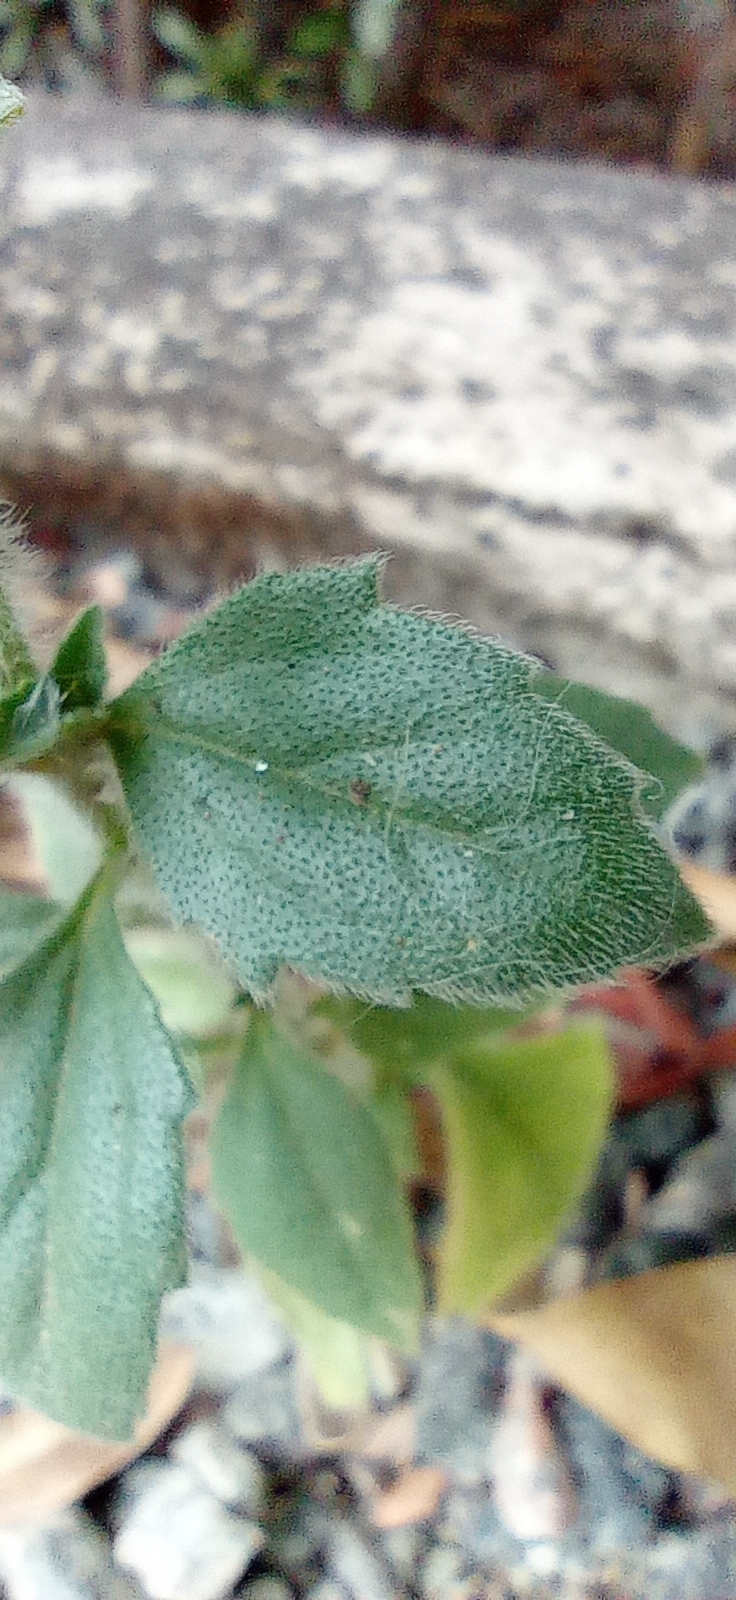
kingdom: Plantae
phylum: Tracheophyta
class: Magnoliopsida
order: Asterales
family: Asteraceae
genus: Tridax
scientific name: Tridax procumbens
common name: Coatbuttons
